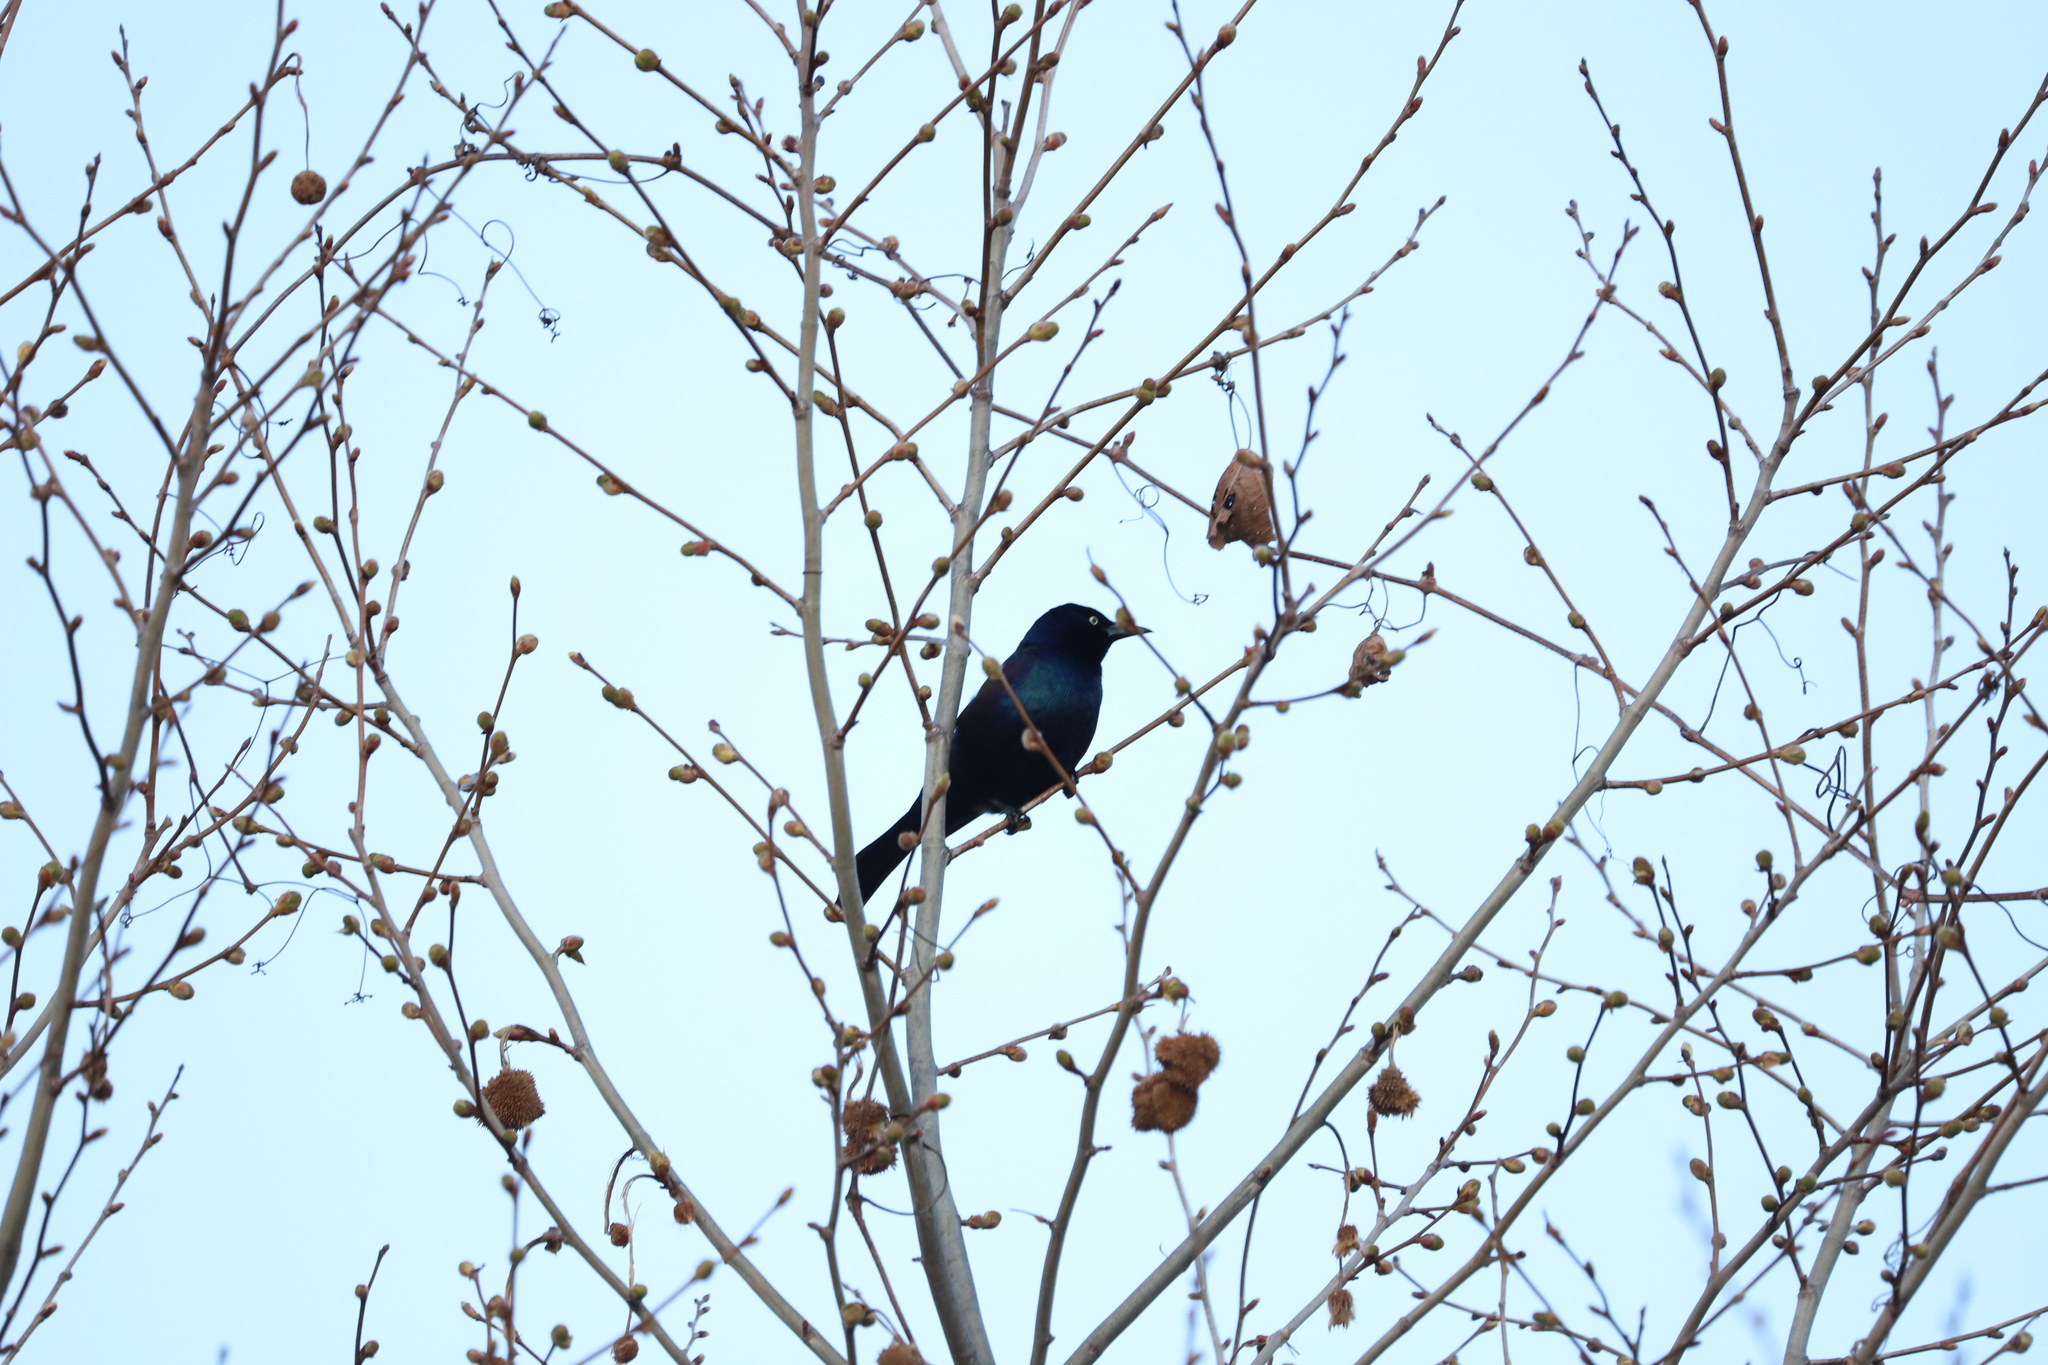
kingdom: Animalia
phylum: Chordata
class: Aves
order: Passeriformes
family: Icteridae
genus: Quiscalus
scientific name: Quiscalus quiscula
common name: Common grackle
